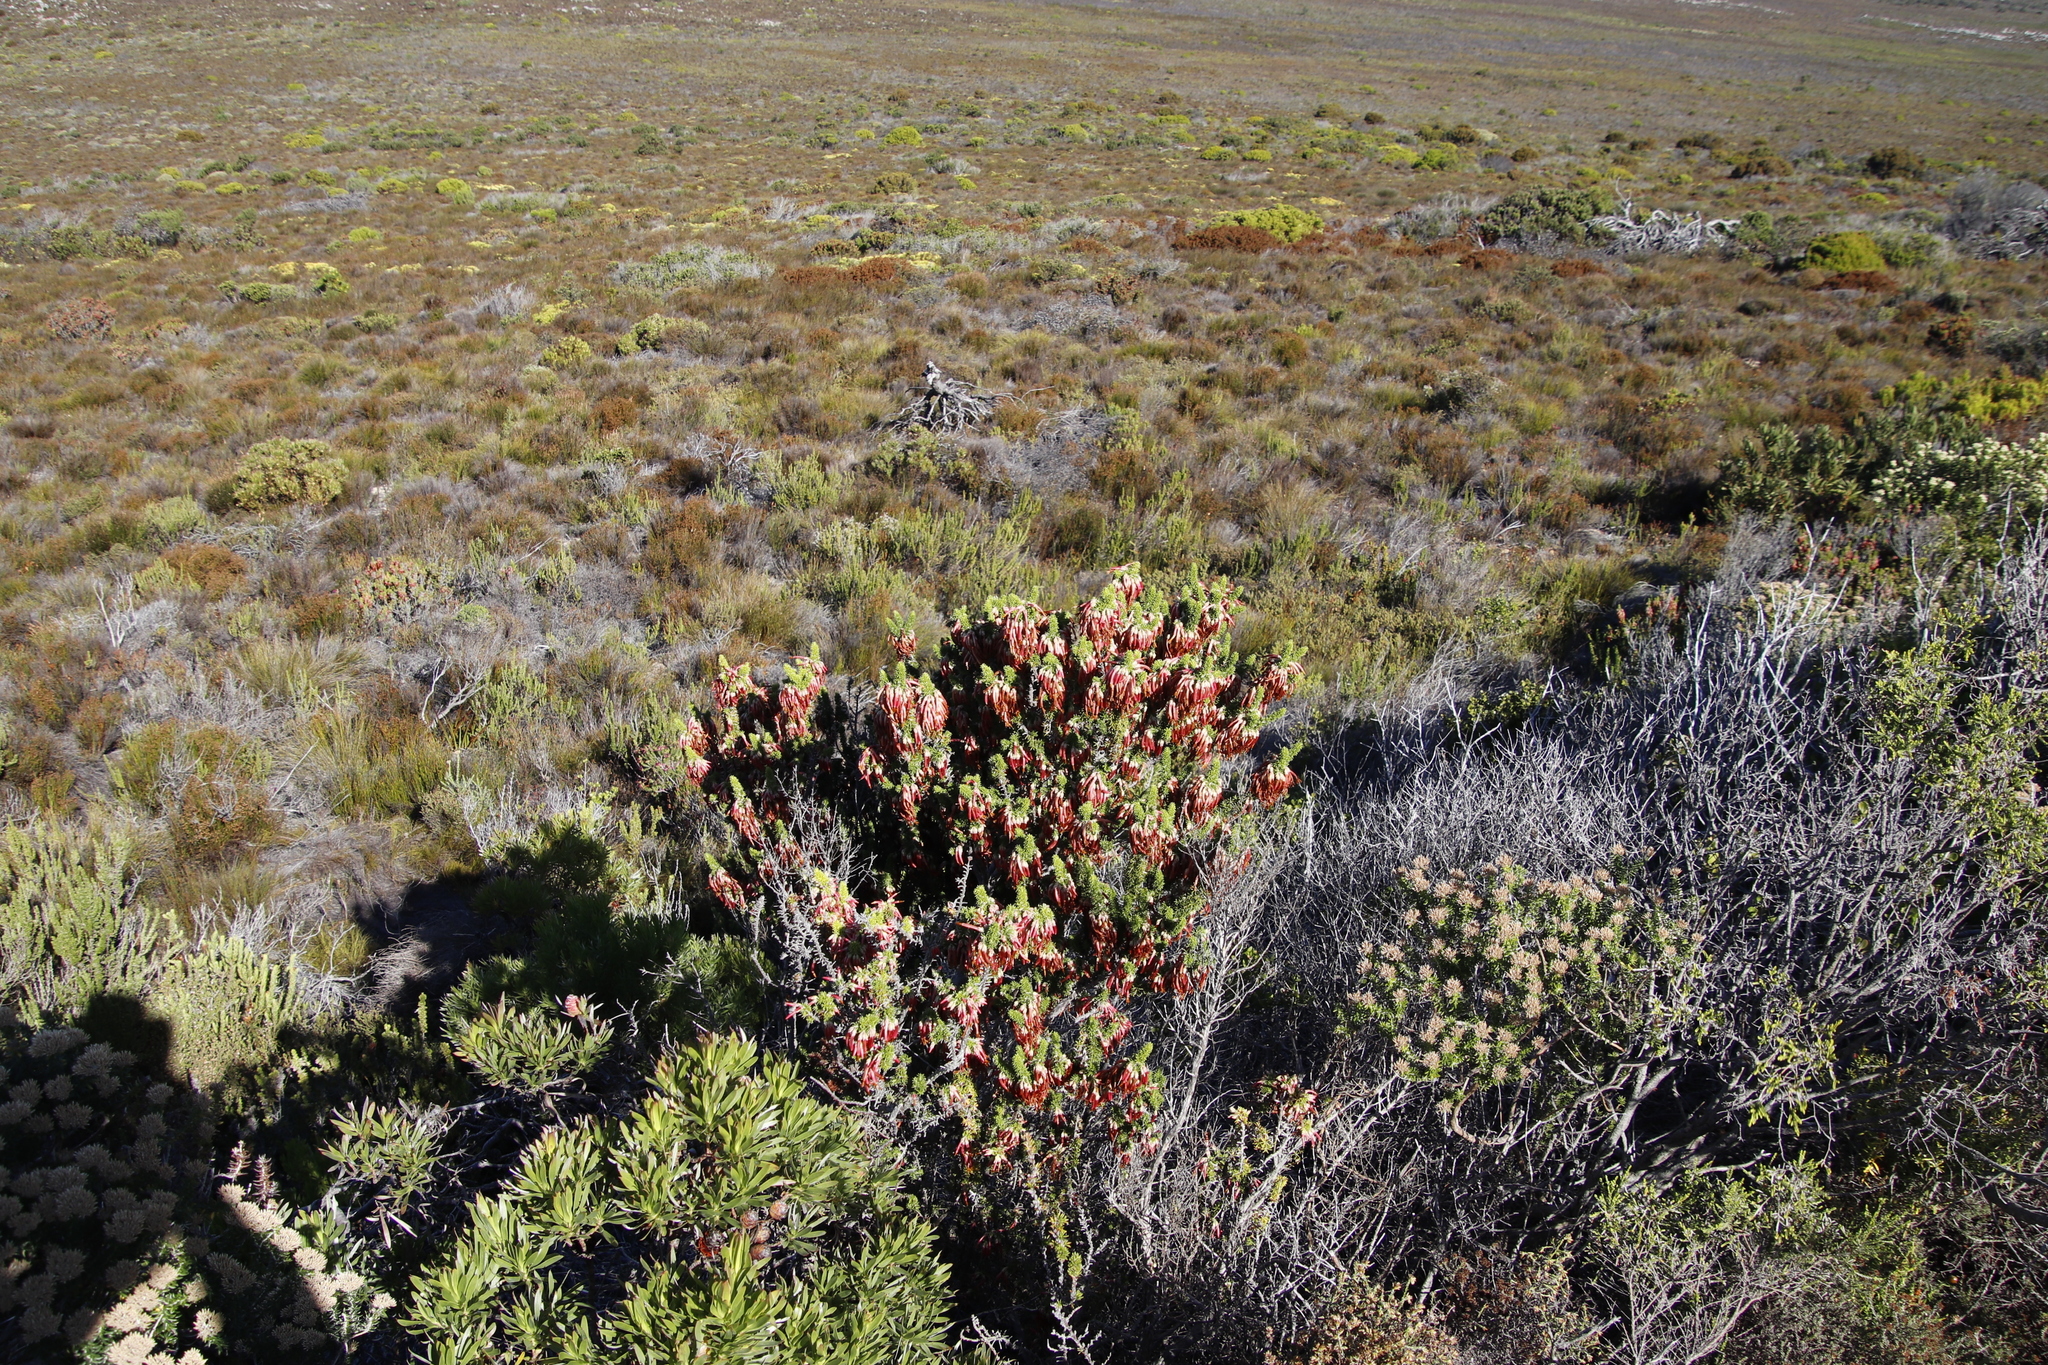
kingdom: Plantae
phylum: Tracheophyta
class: Magnoliopsida
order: Ericales
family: Ericaceae
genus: Erica
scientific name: Erica coccinea
